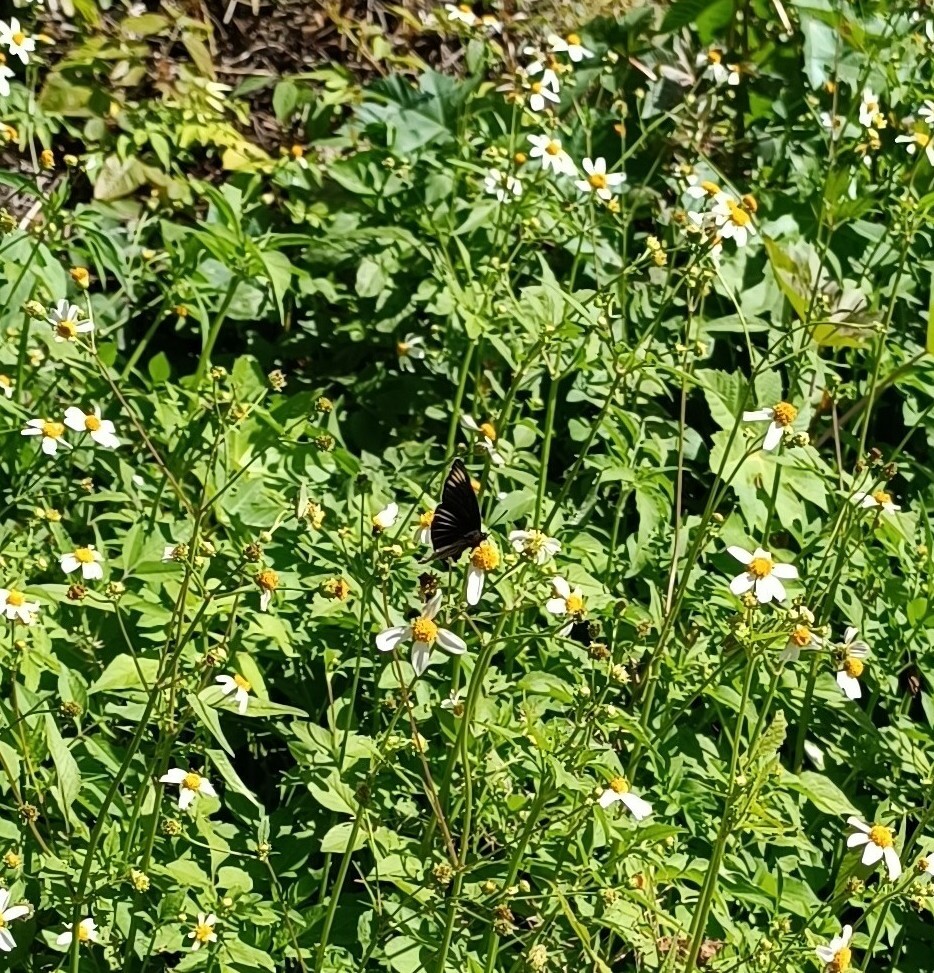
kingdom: Animalia
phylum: Arthropoda
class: Insecta
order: Lepidoptera
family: Nymphalidae
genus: Chlosyne
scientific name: Chlosyne ehrenbergii
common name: White-rayed patch
